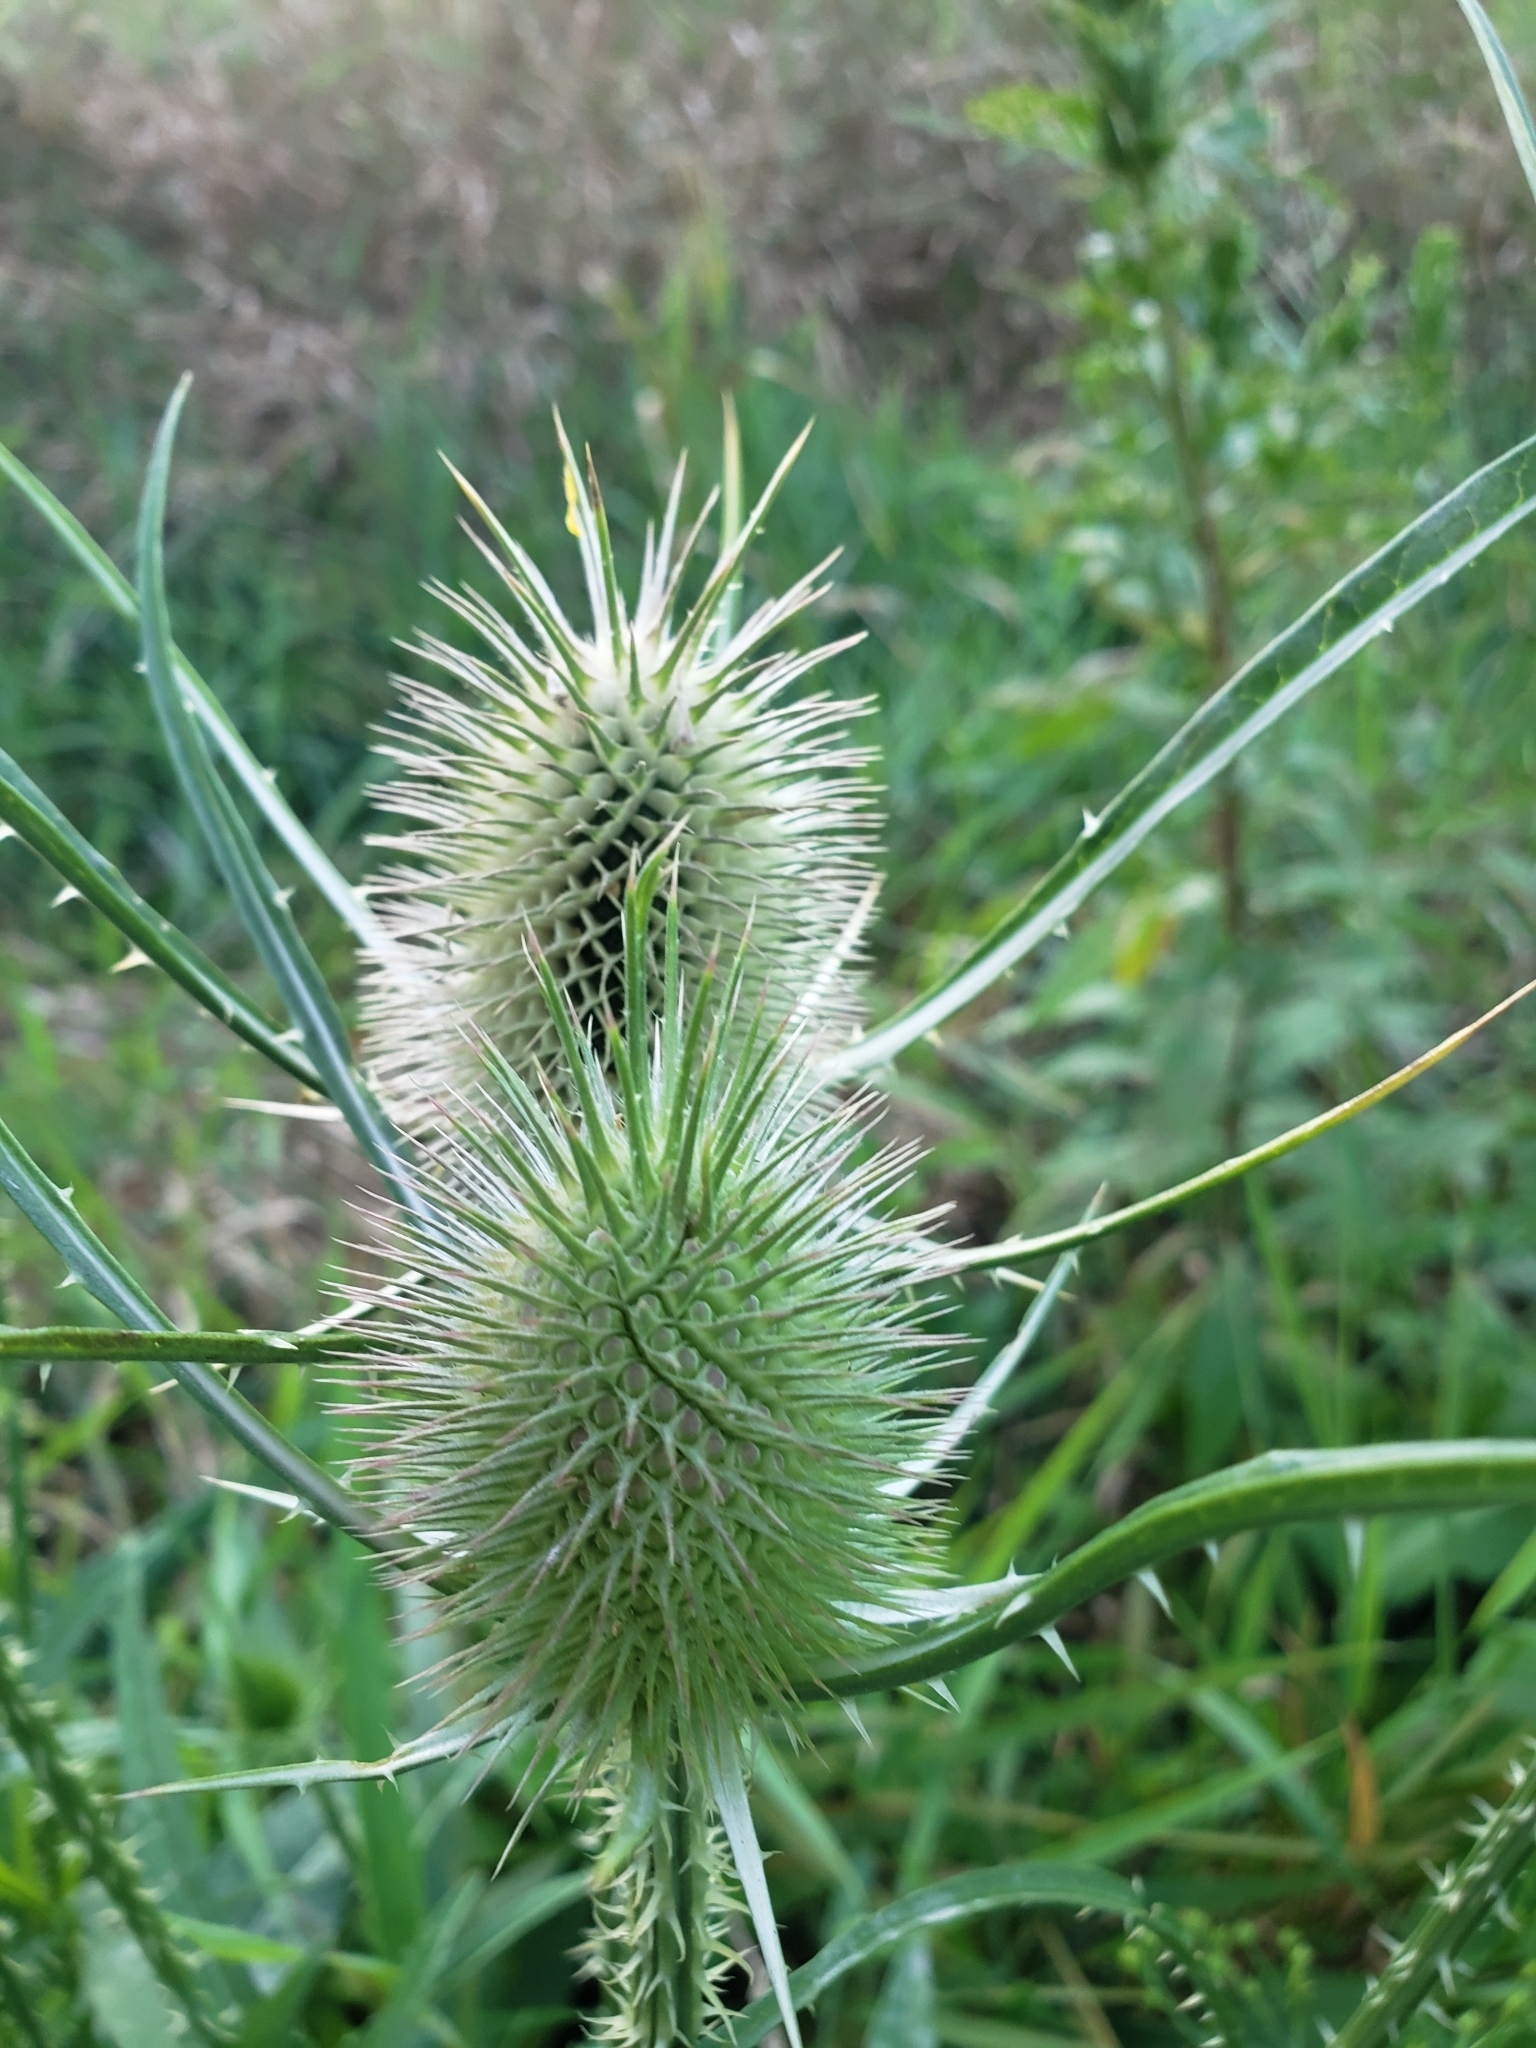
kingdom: Plantae
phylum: Tracheophyta
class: Magnoliopsida
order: Dipsacales
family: Caprifoliaceae
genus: Dipsacus
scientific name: Dipsacus fullonum
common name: Teasel
